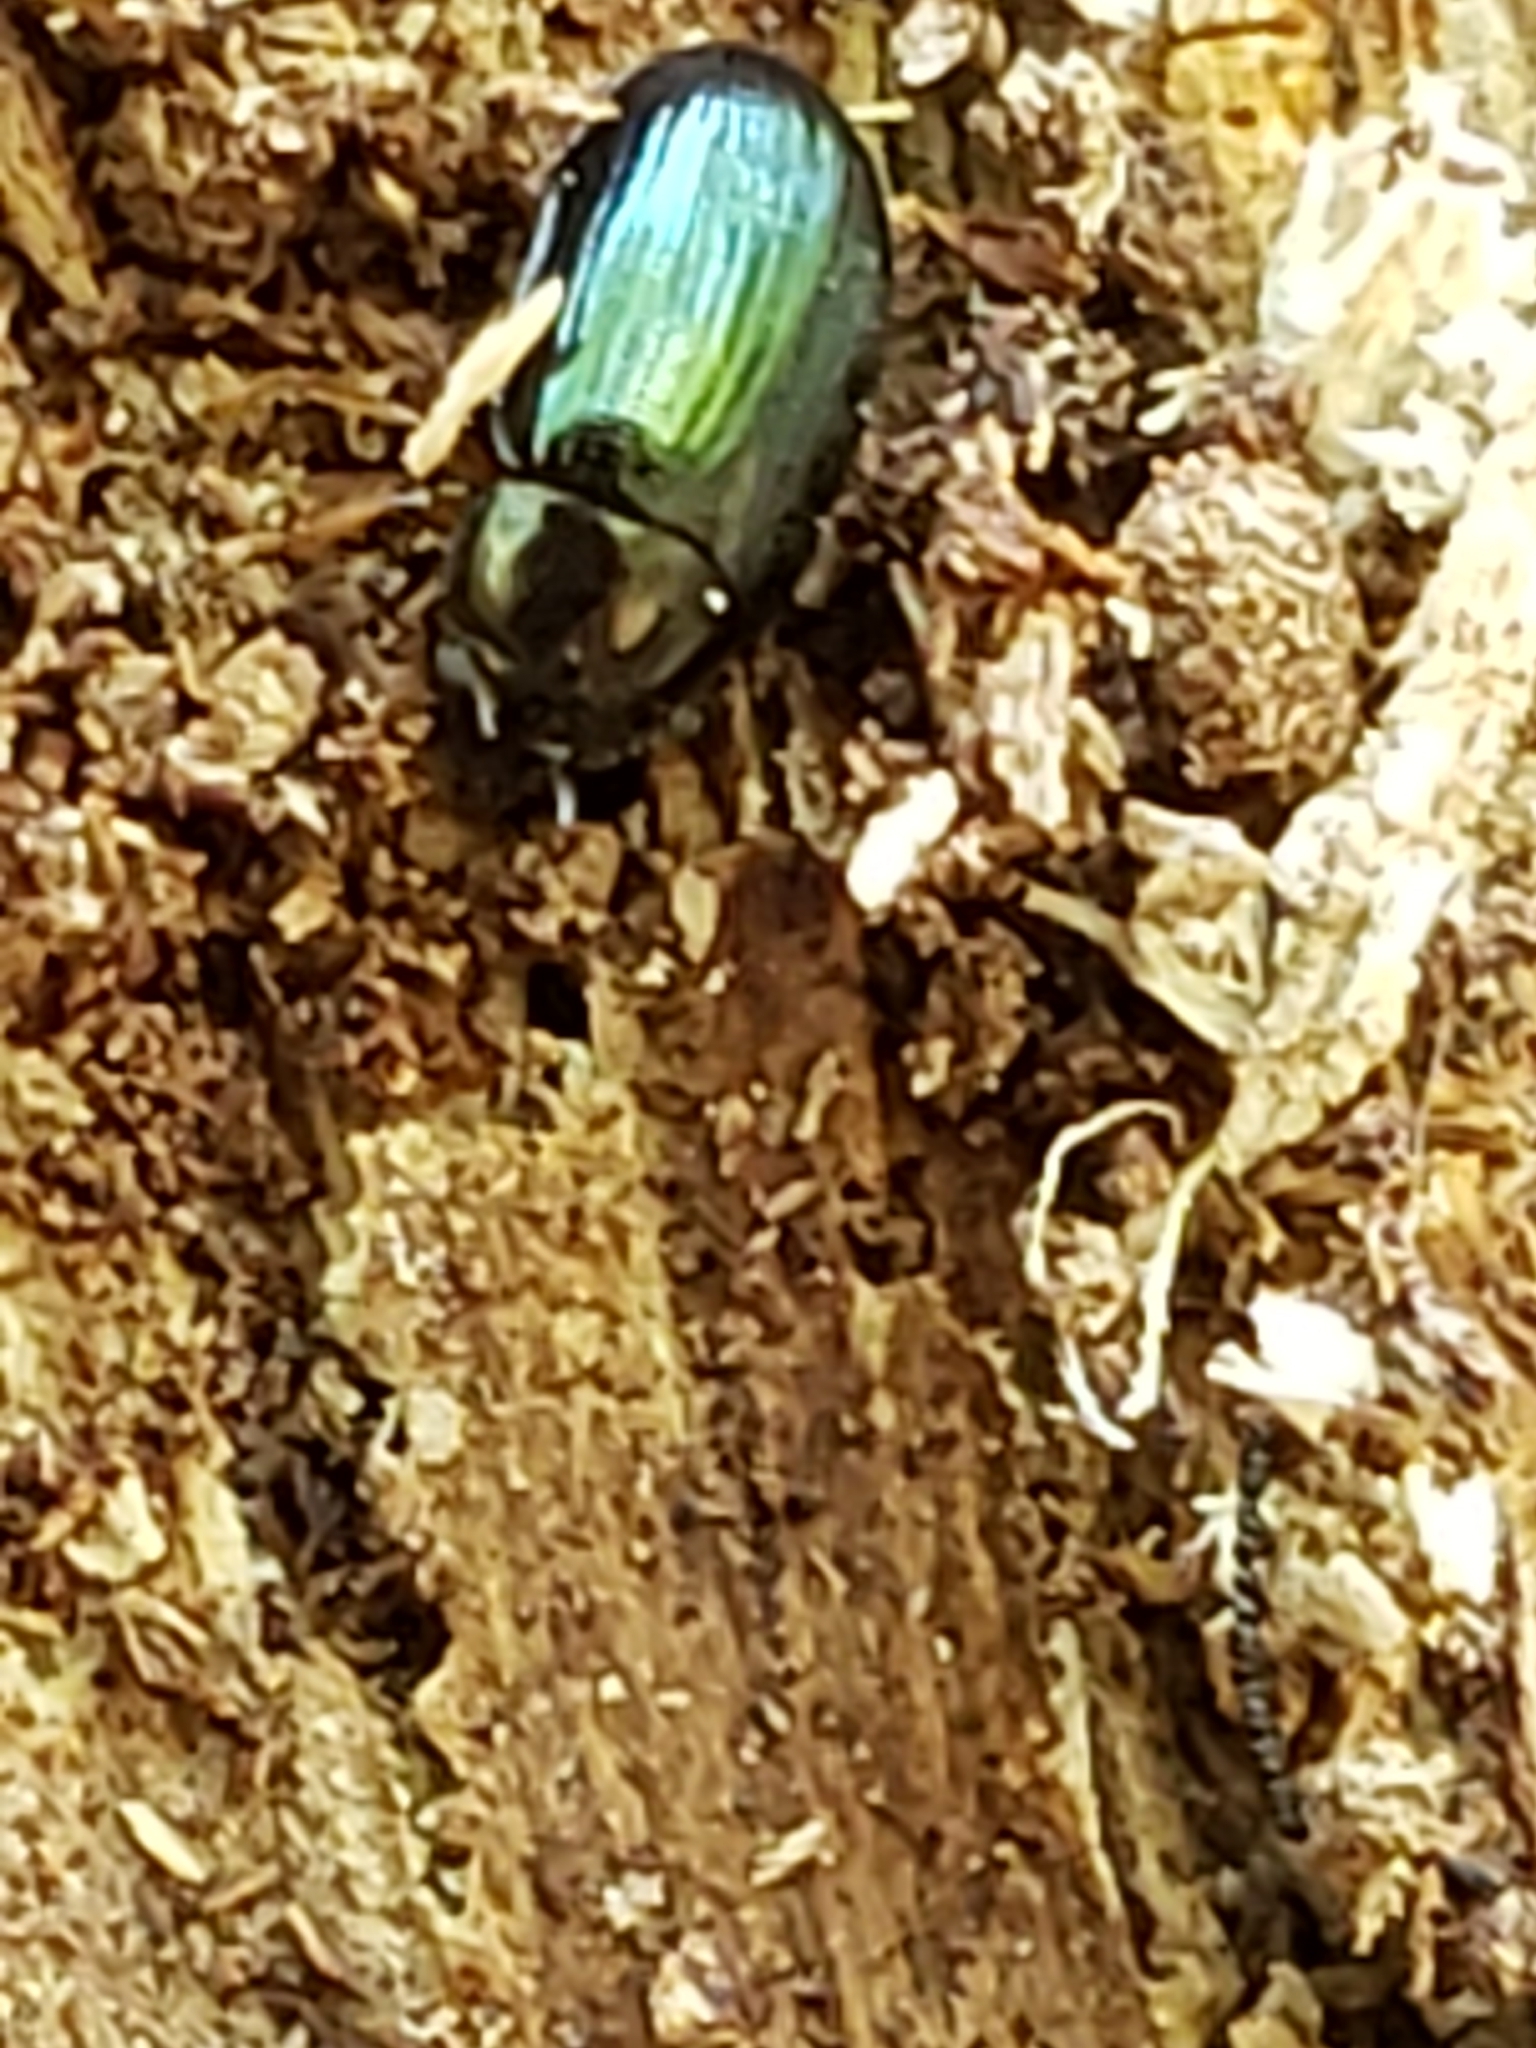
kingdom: Animalia
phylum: Arthropoda
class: Insecta
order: Coleoptera
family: Tenebrionidae
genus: Neomida
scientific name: Neomida bicornis
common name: Two-horned darkling beetle
